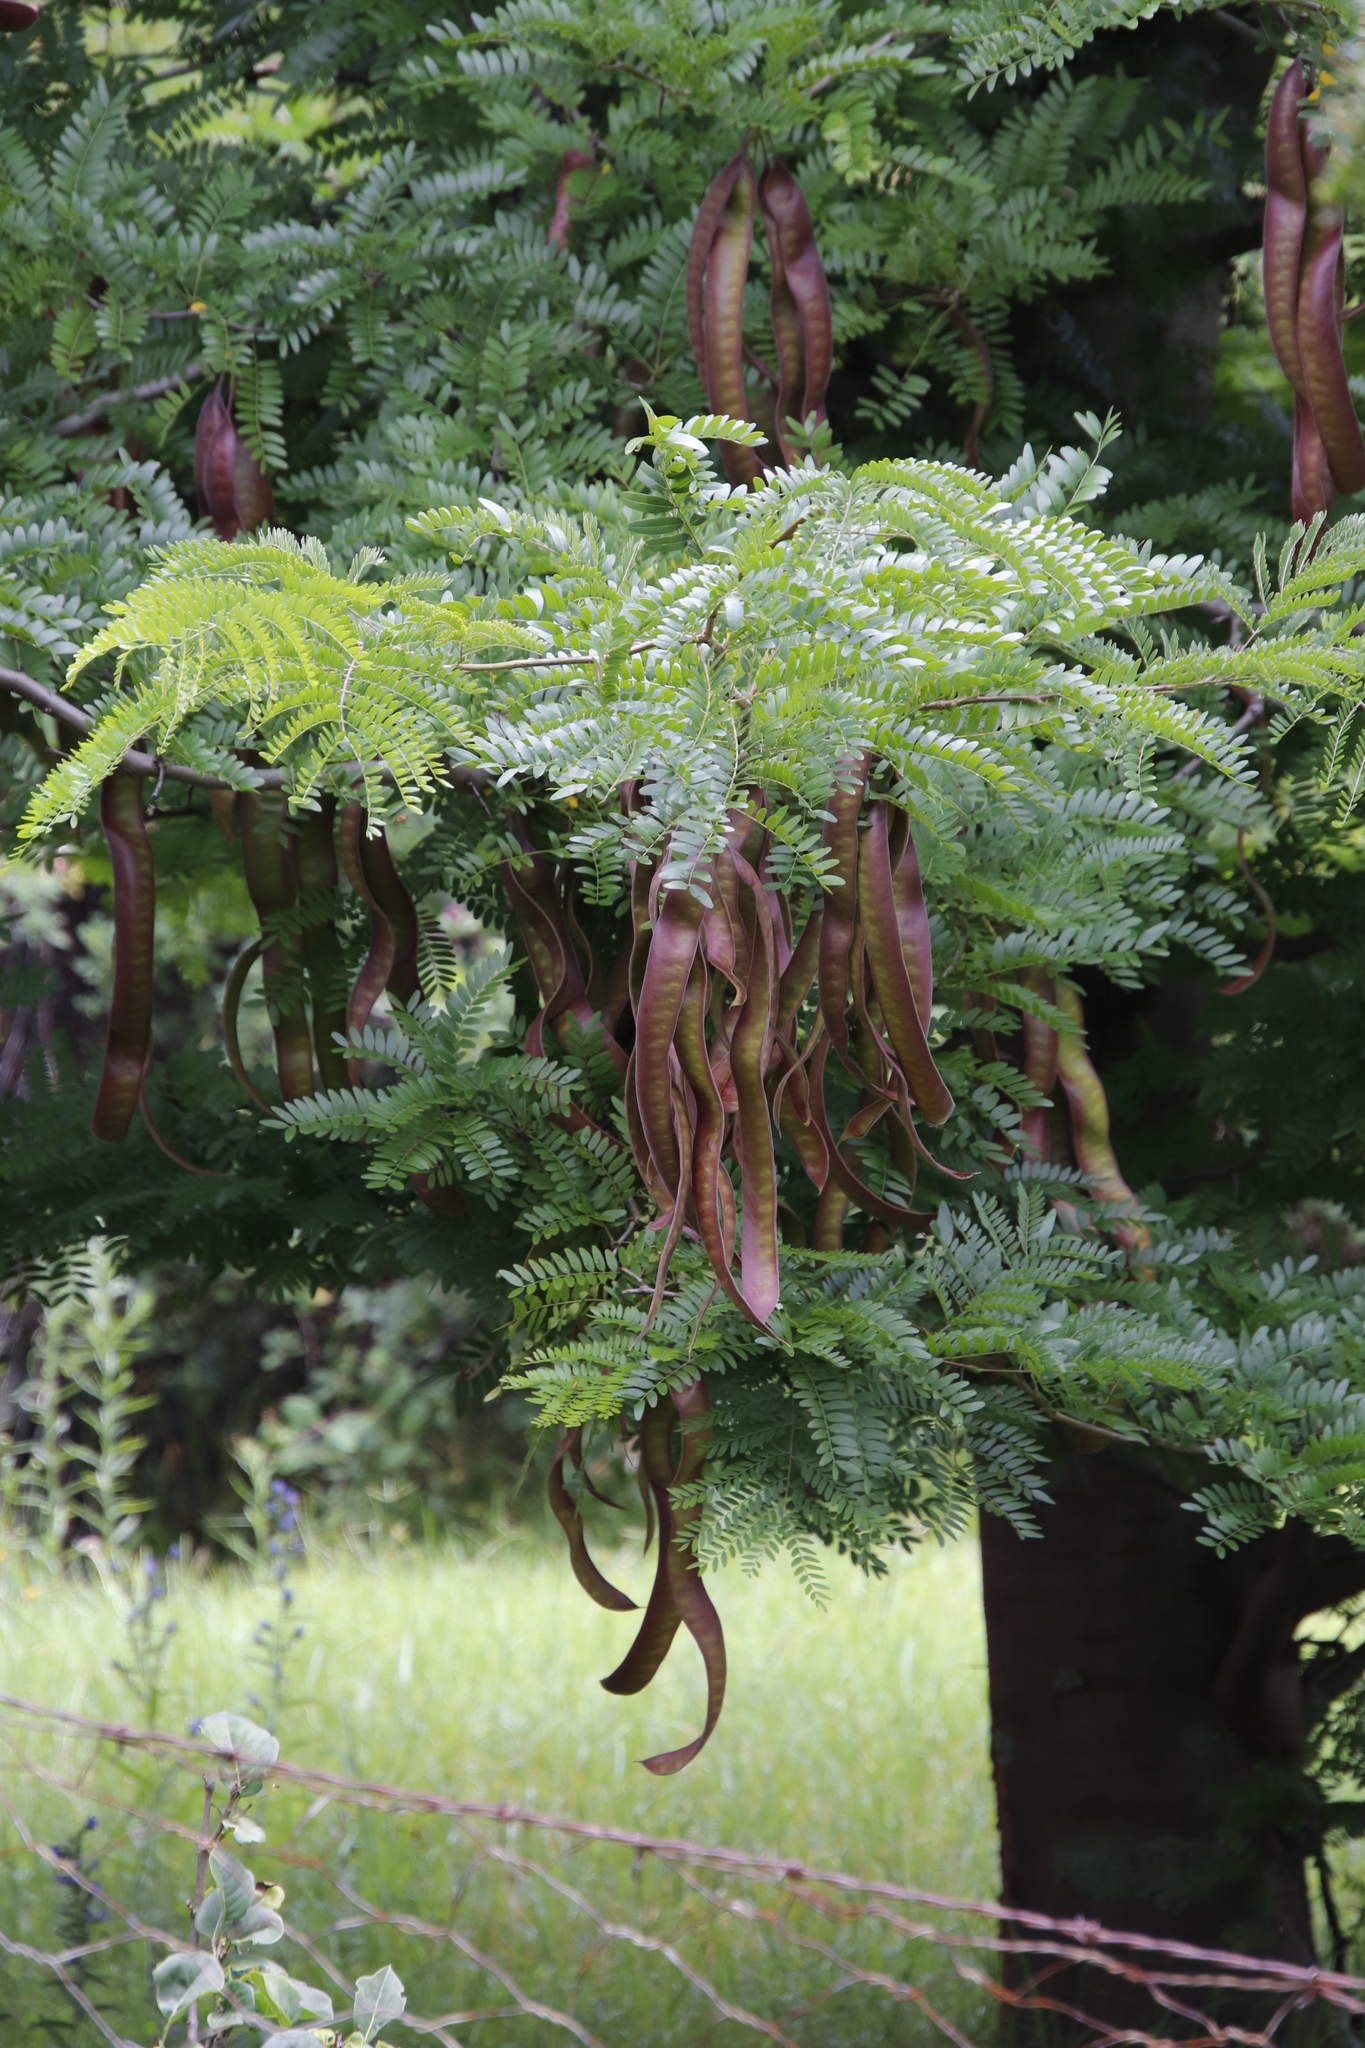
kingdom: Plantae
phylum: Tracheophyta
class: Magnoliopsida
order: Fabales
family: Fabaceae
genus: Gleditsia
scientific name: Gleditsia triacanthos
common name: Common honeylocust
